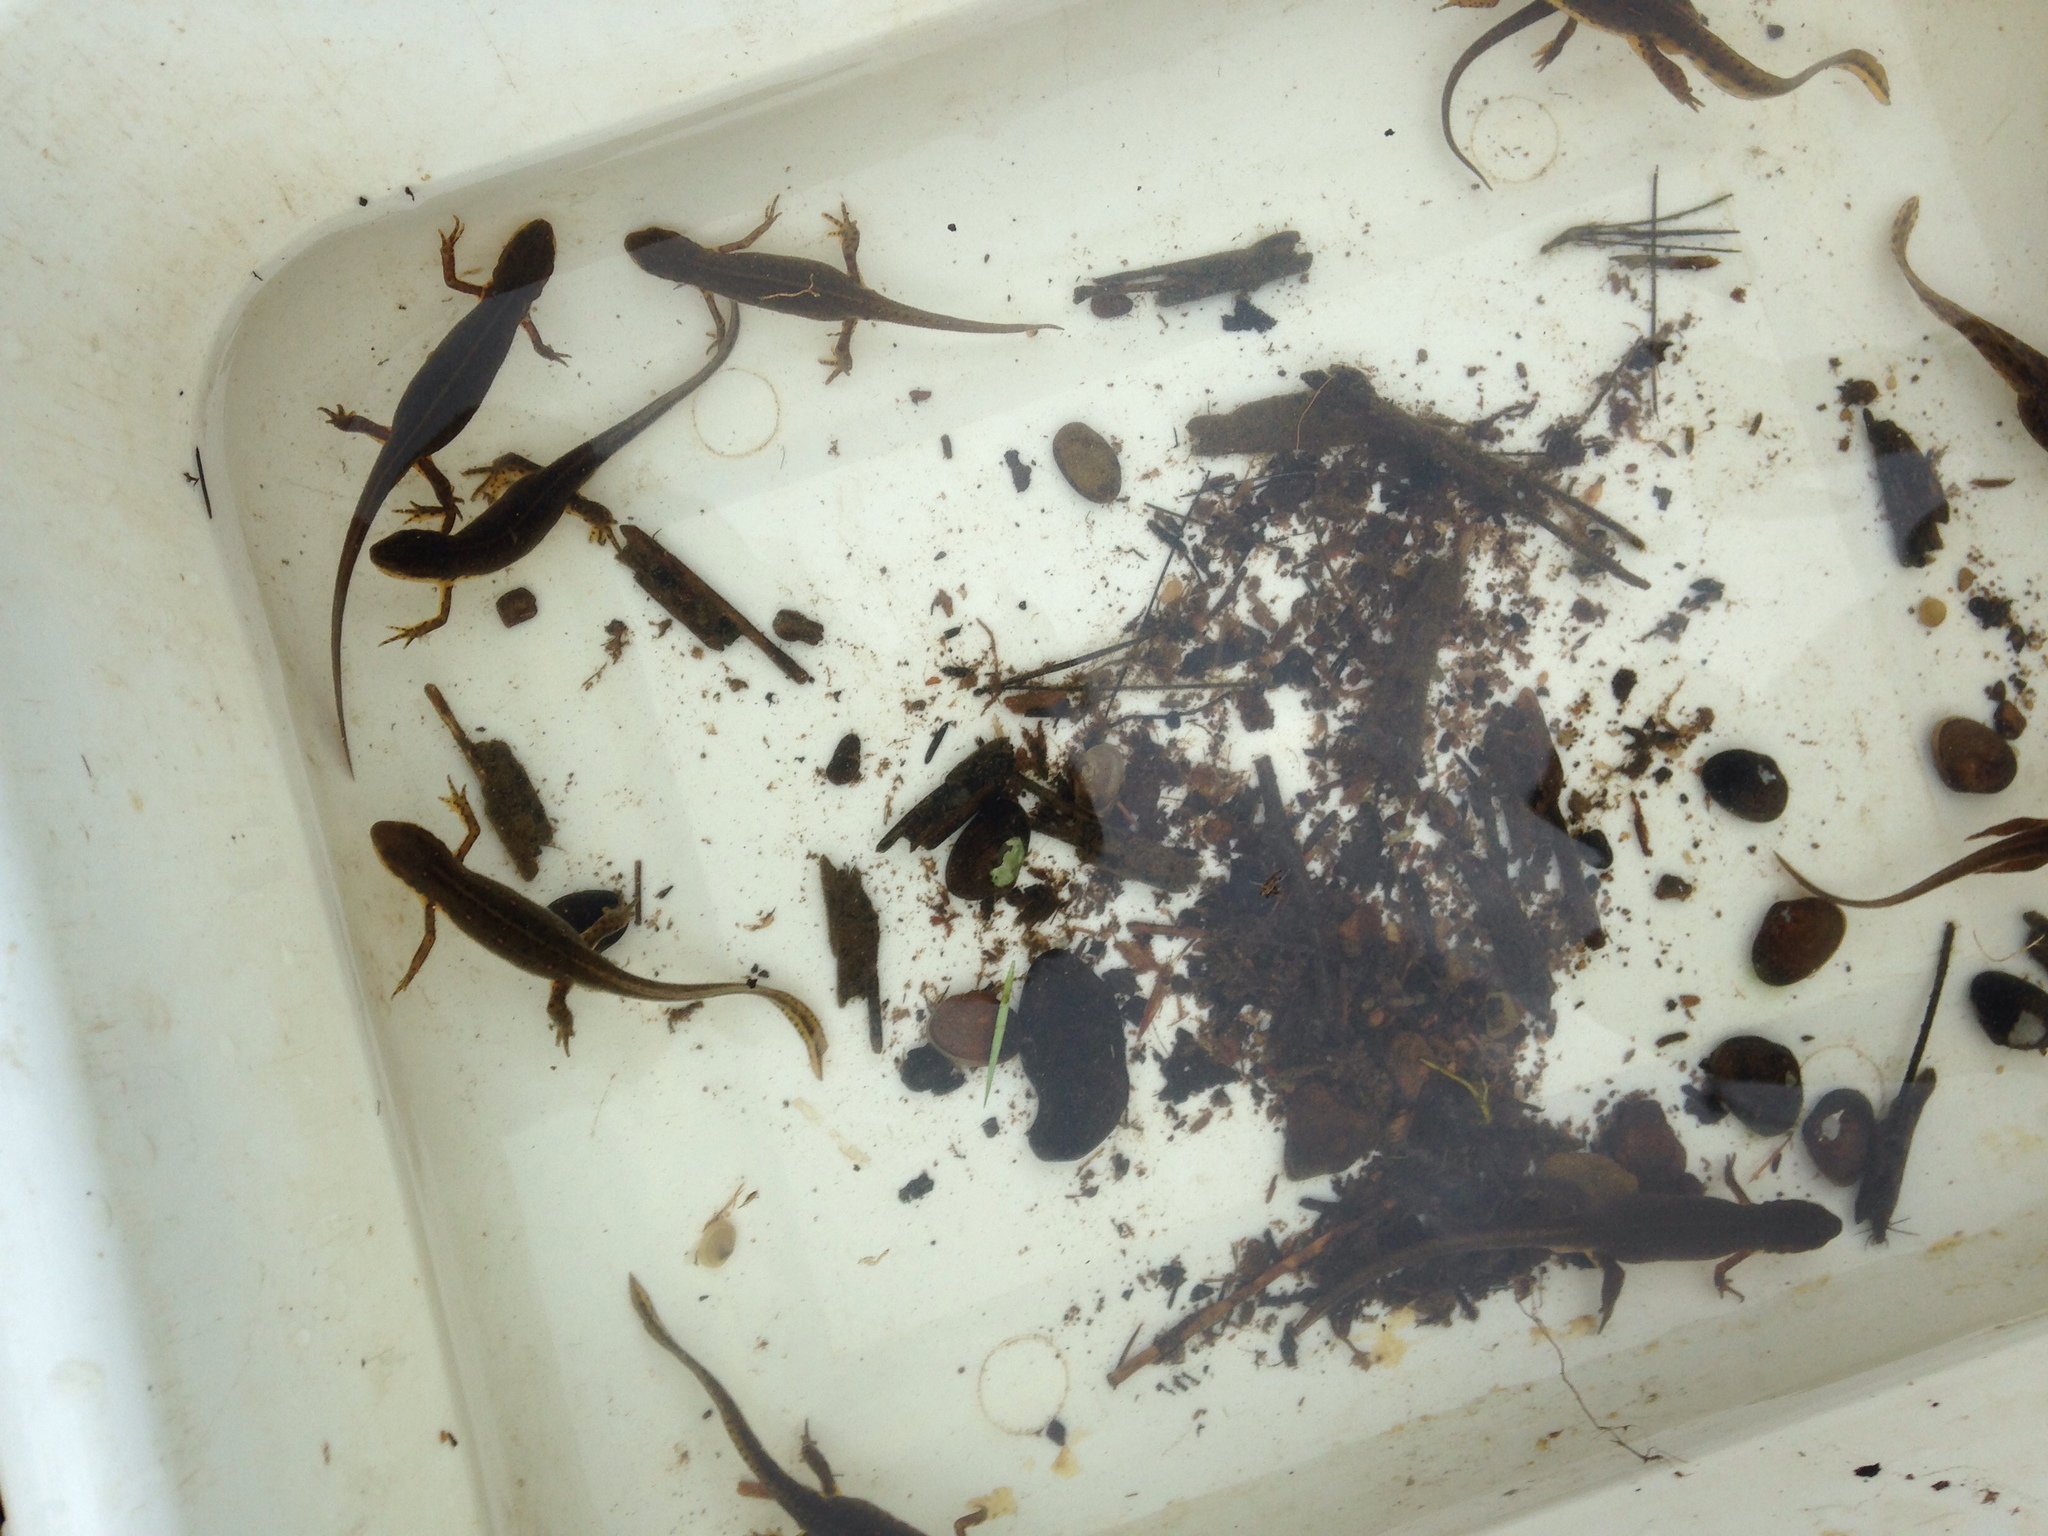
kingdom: Animalia
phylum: Chordata
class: Amphibia
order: Caudata
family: Salamandridae
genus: Notophthalmus
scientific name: Notophthalmus viridescens
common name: Eastern newt
